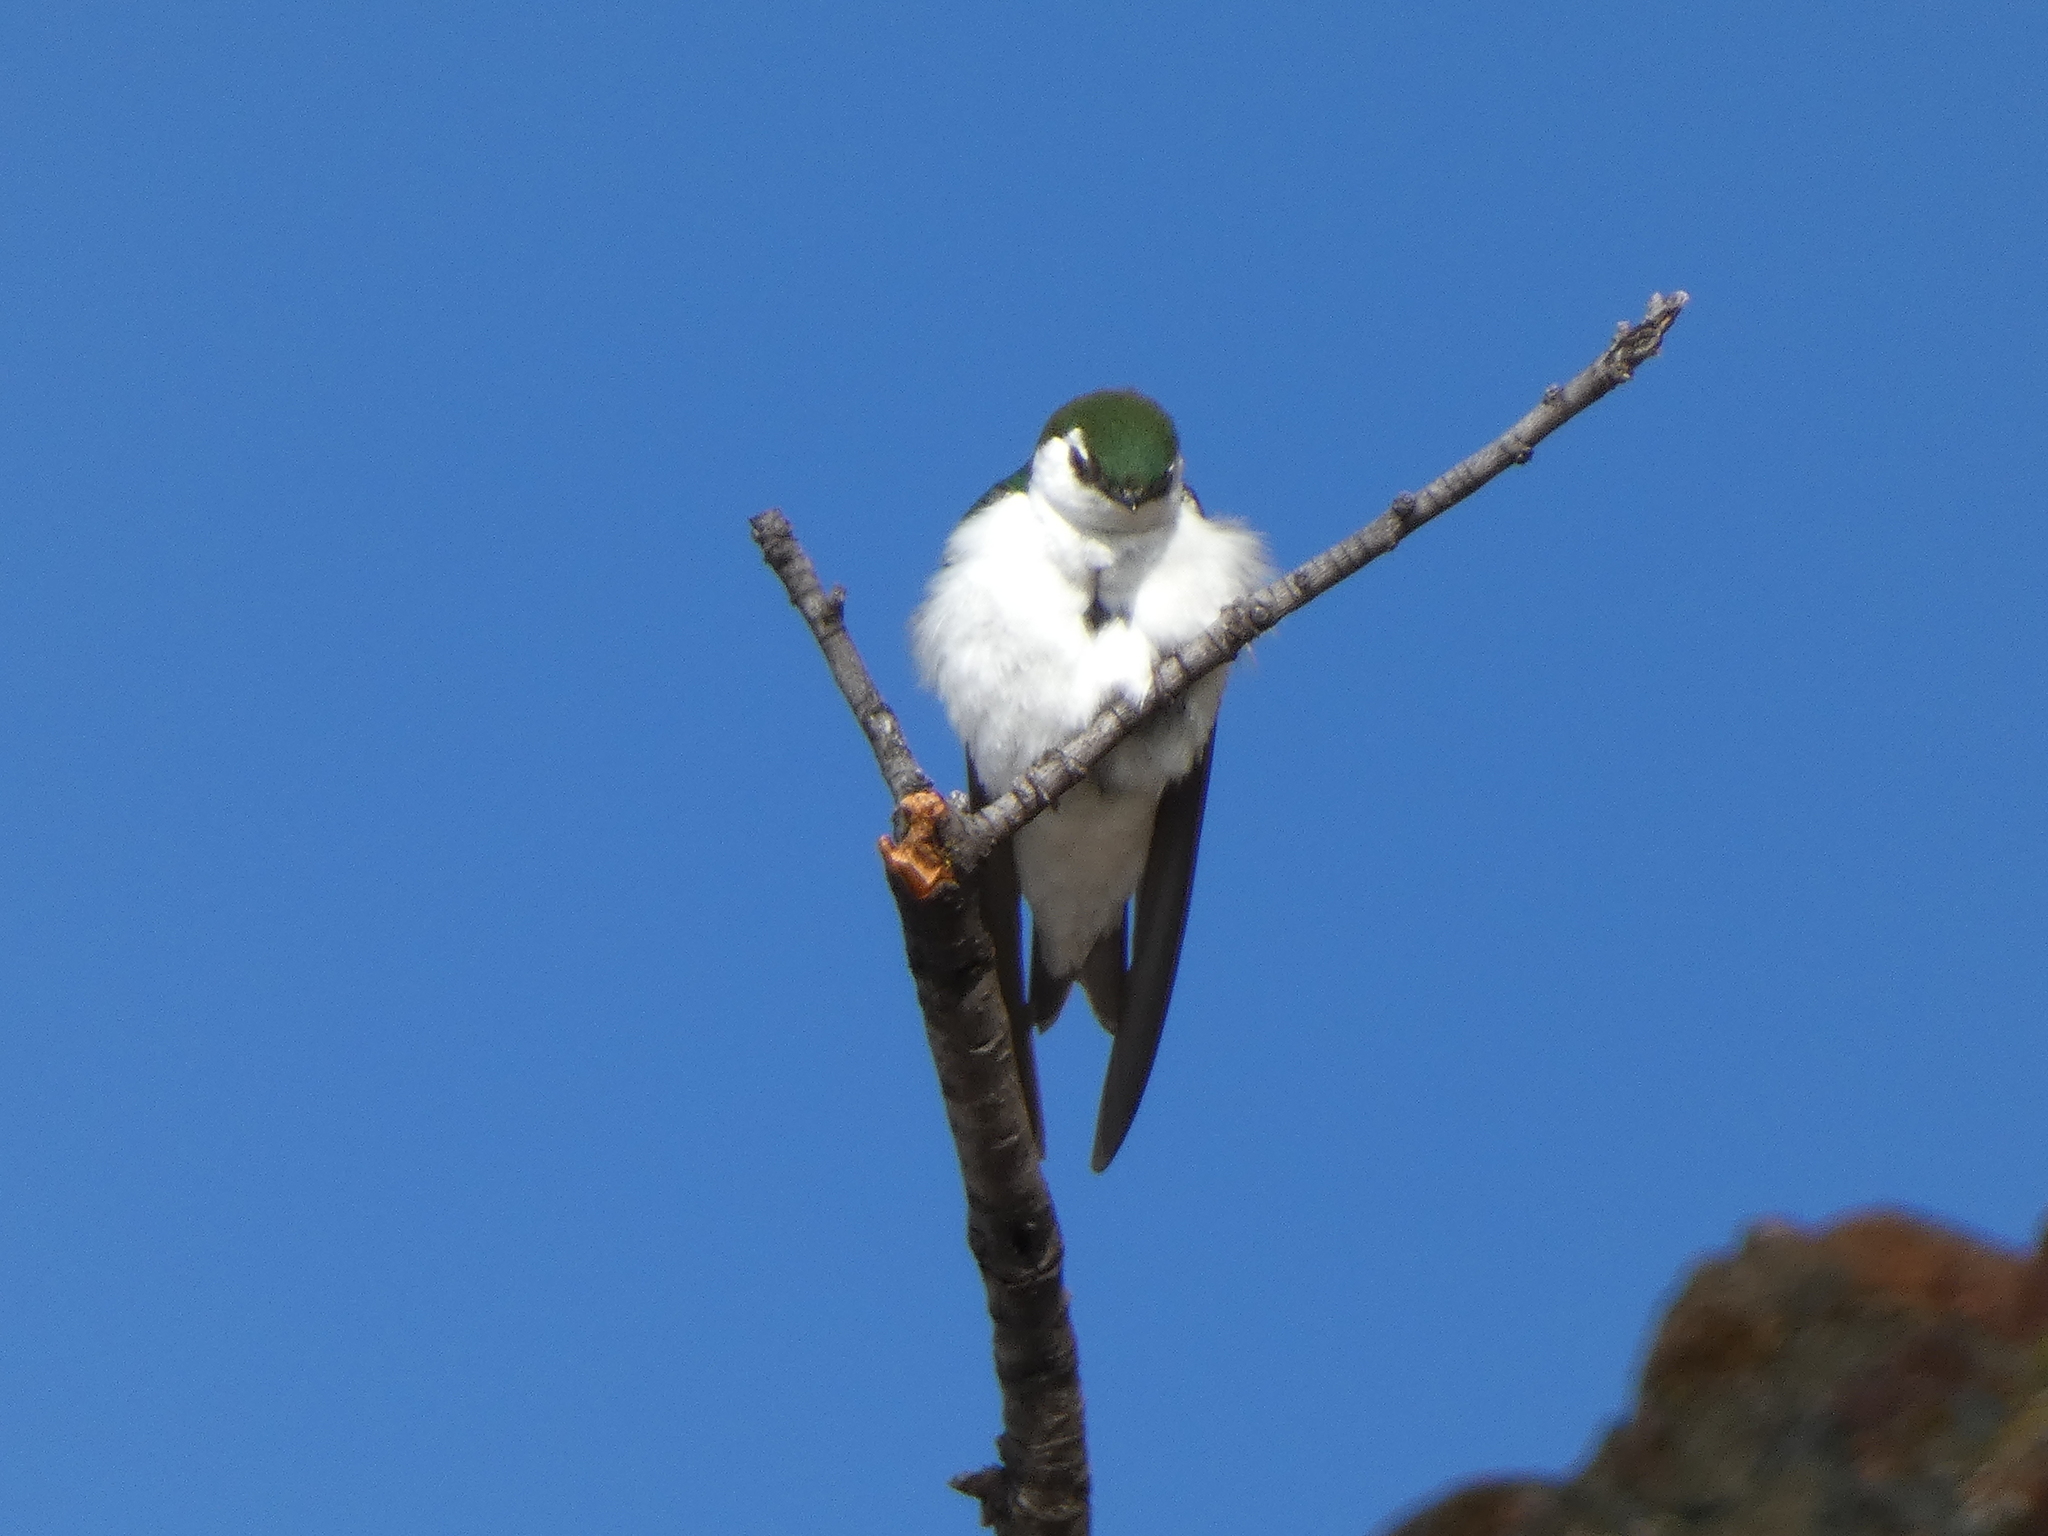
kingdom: Animalia
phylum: Chordata
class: Aves
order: Passeriformes
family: Hirundinidae
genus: Tachycineta
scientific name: Tachycineta thalassina
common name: Violet-green swallow
